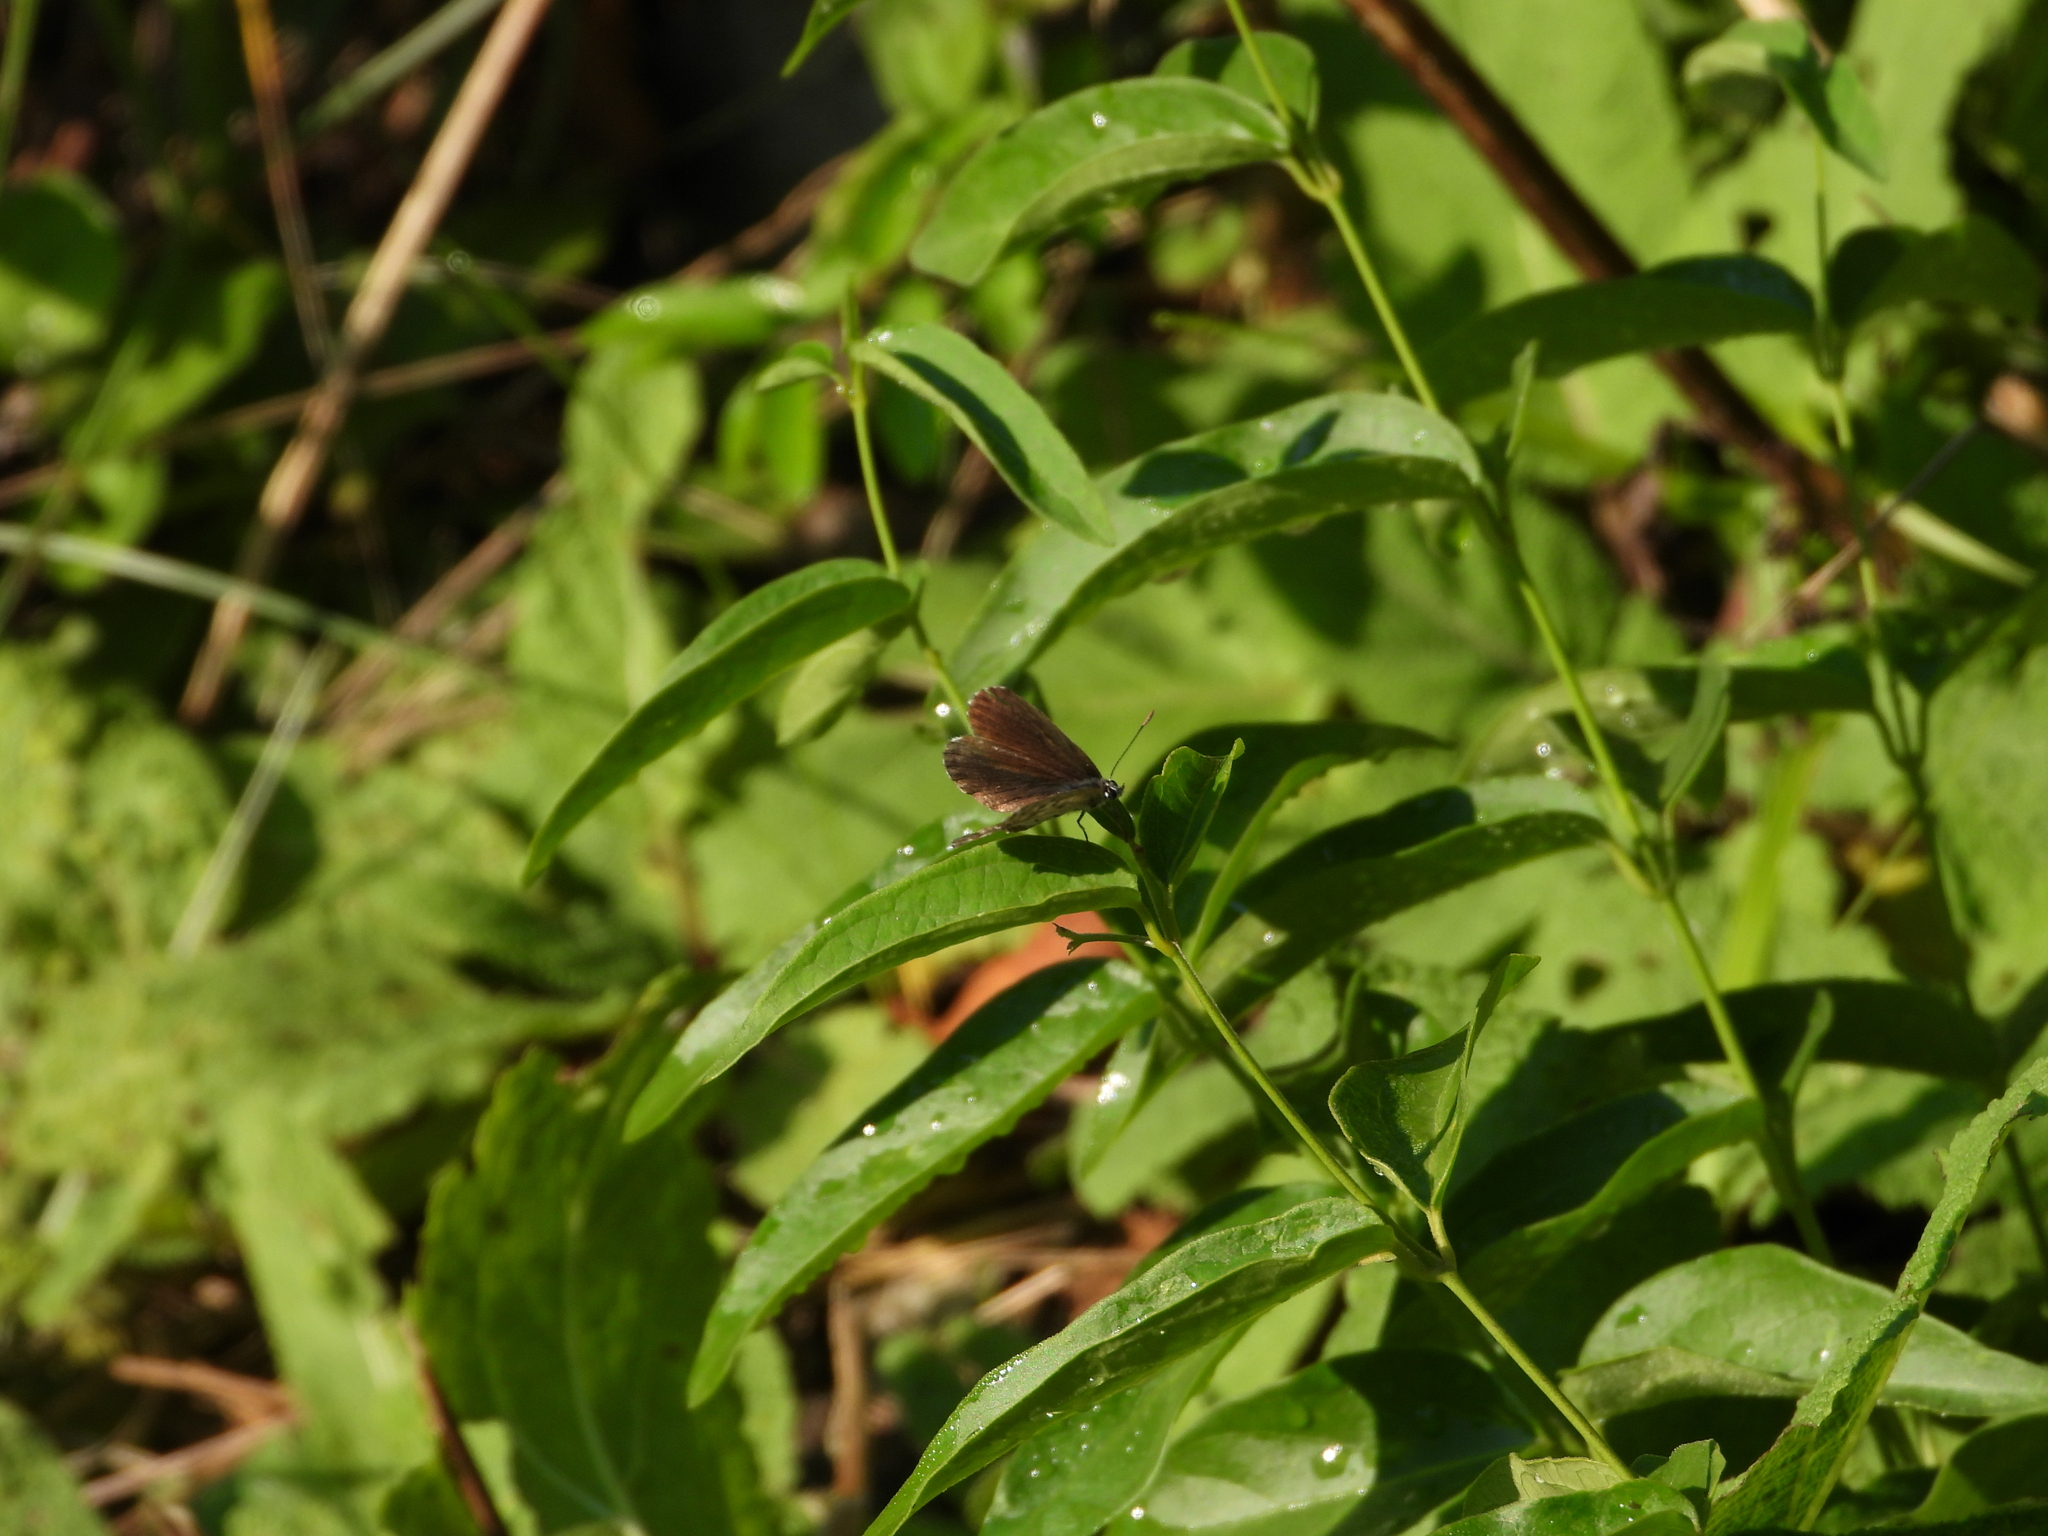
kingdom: Animalia
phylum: Arthropoda
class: Insecta
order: Lepidoptera
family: Lycaenidae
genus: Scolitantides
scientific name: Scolitantides orion
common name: Chequered blue
